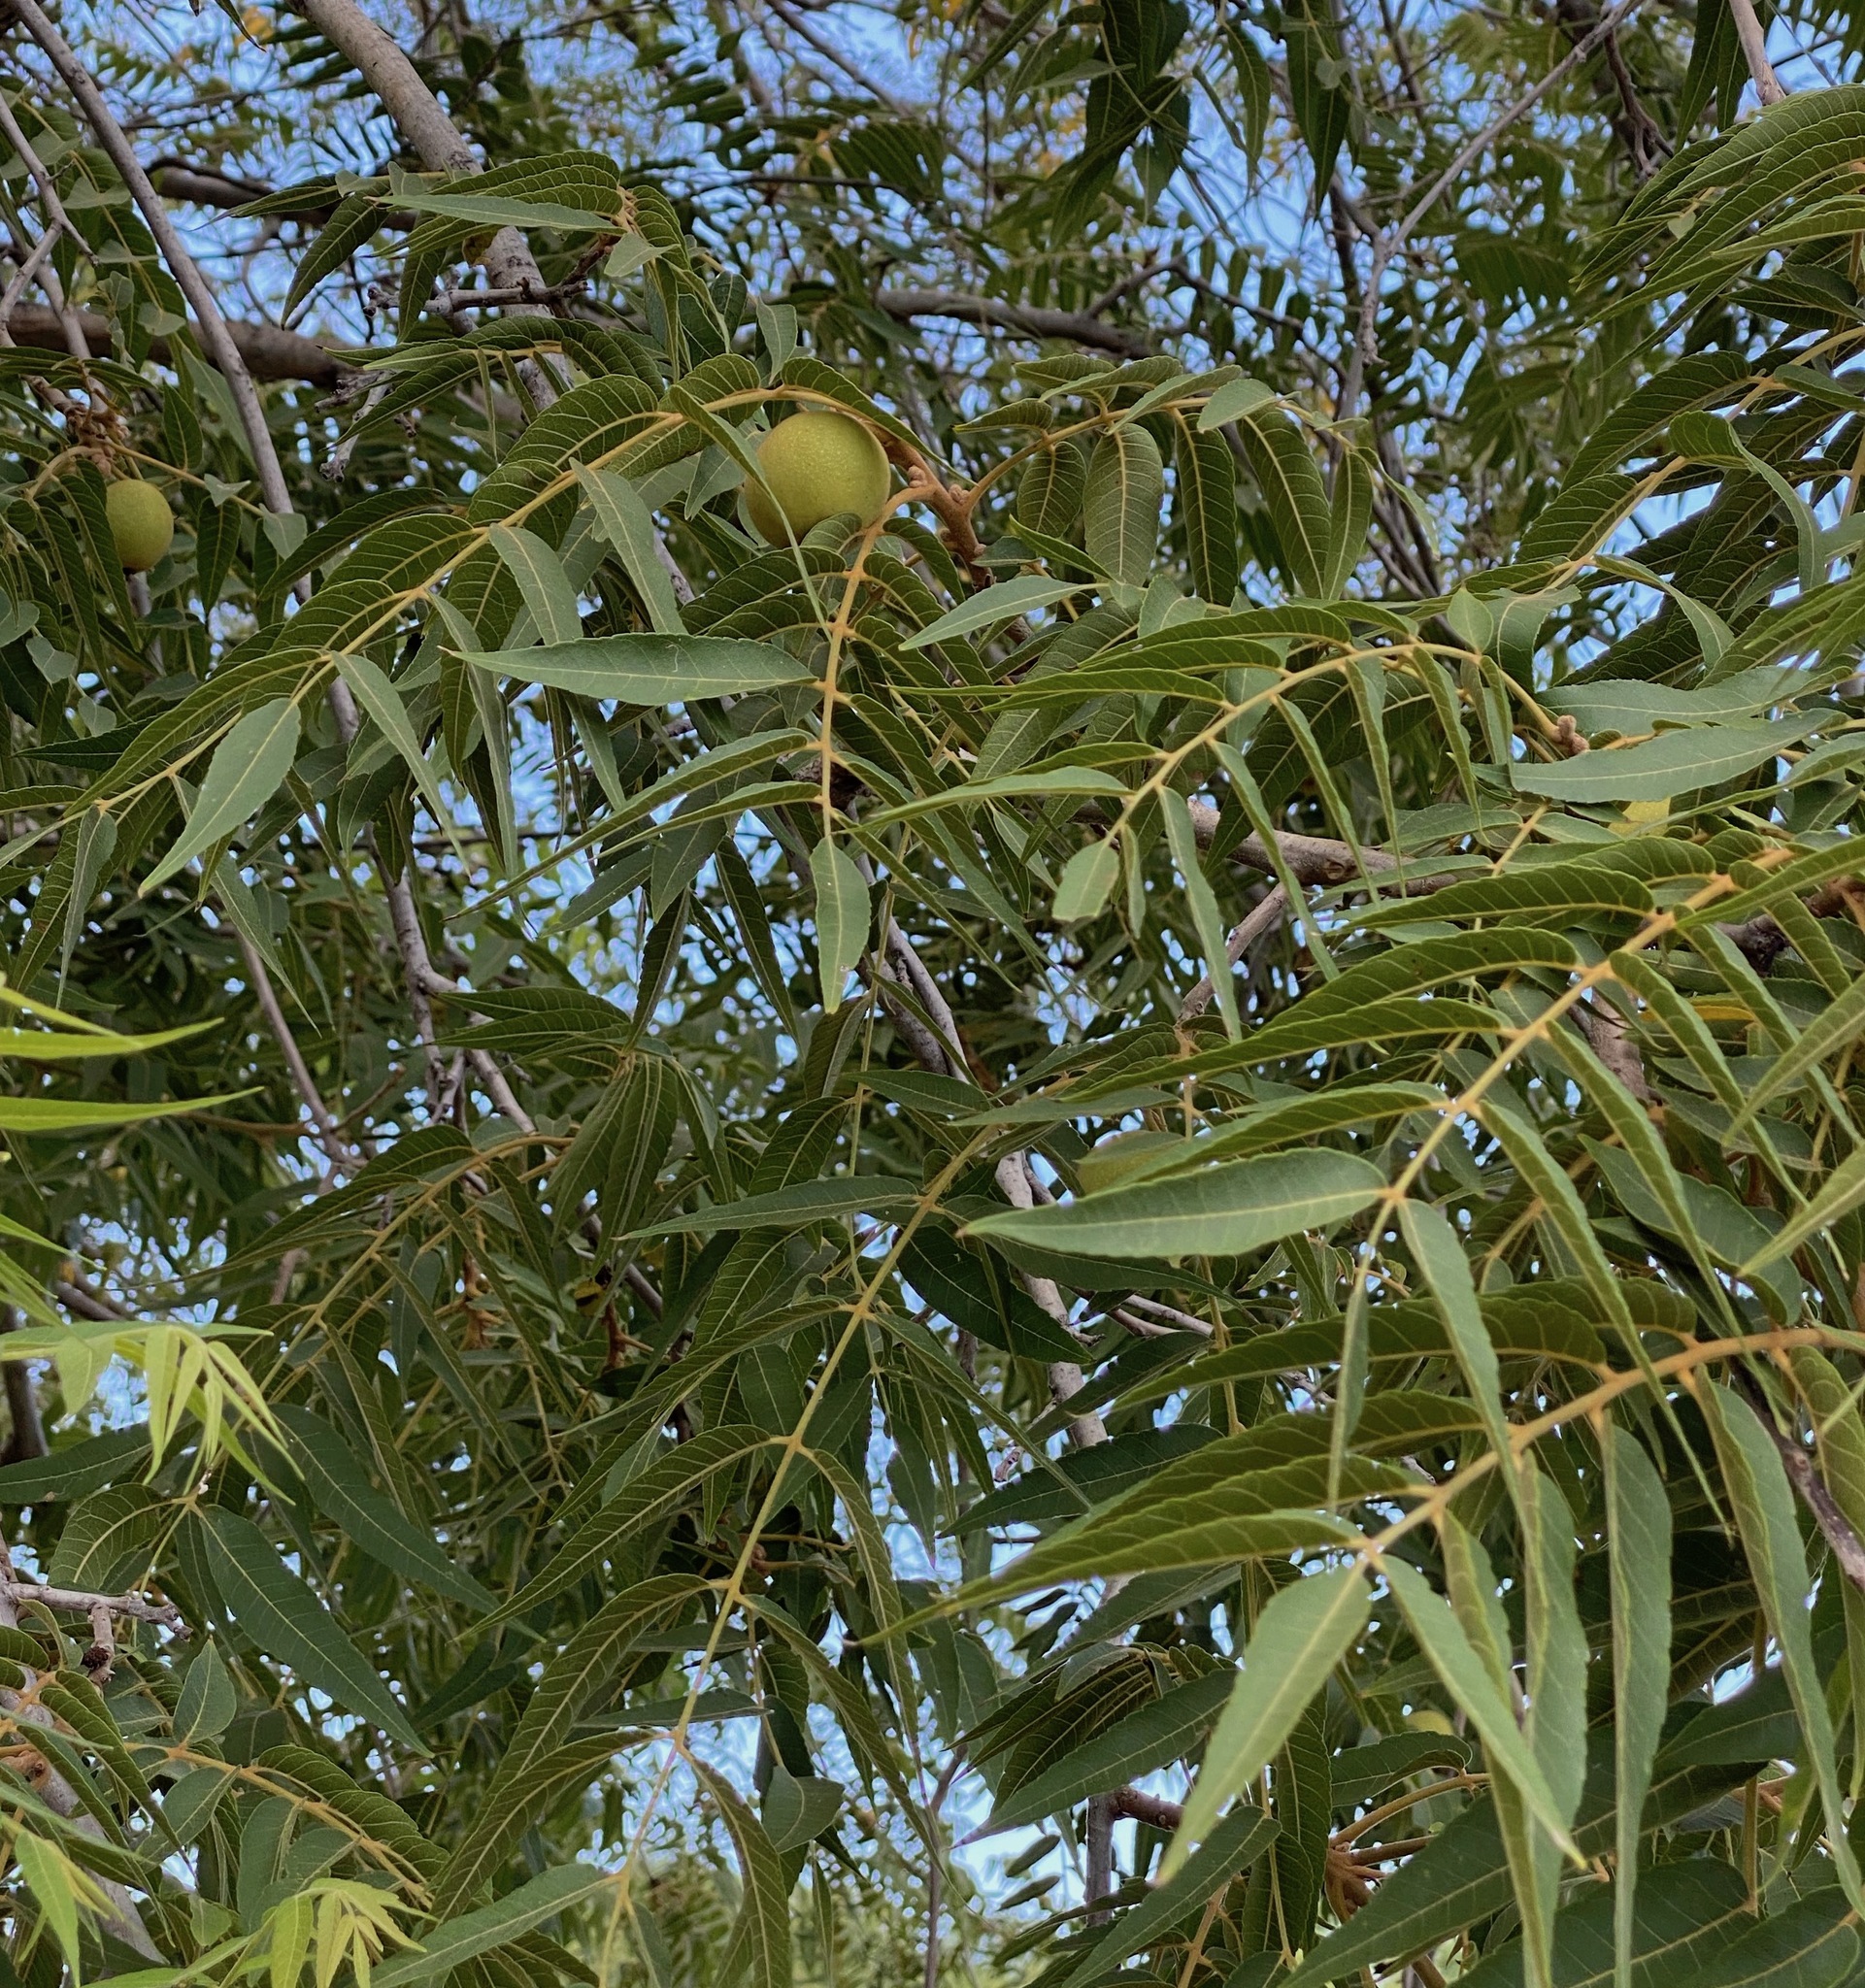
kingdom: Plantae
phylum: Tracheophyta
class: Magnoliopsida
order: Fagales
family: Juglandaceae
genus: Juglans
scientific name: Juglans major
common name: Arizona walnut
